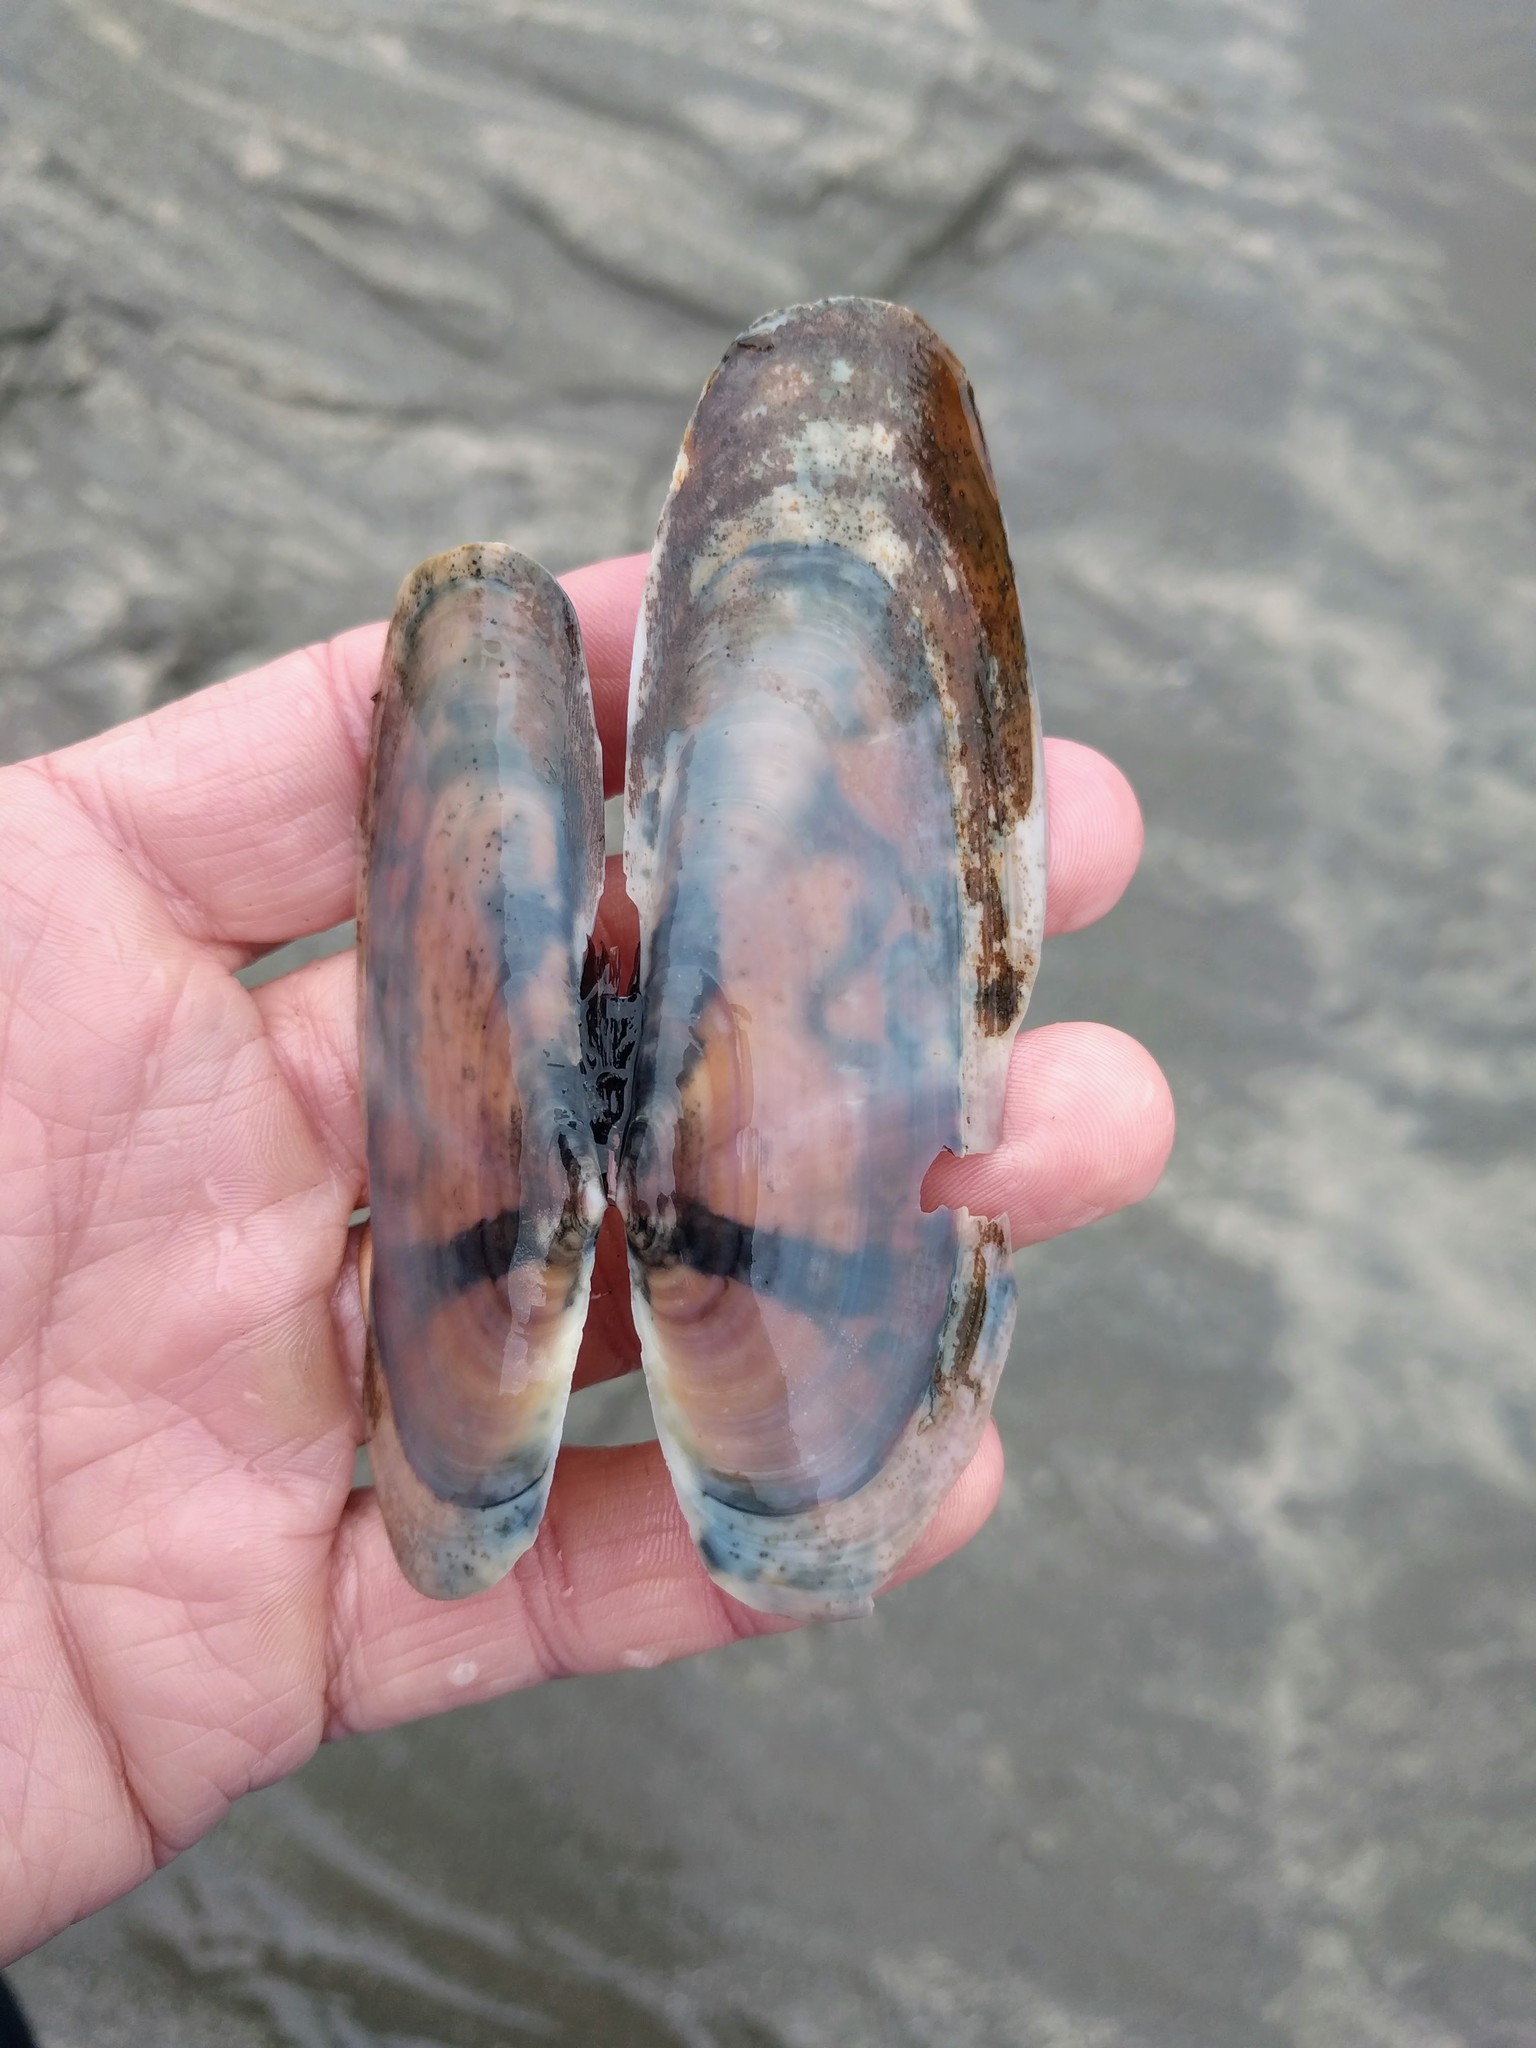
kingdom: Animalia
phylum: Mollusca
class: Bivalvia
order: Adapedonta
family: Pharidae
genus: Siliqua
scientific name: Siliqua patula
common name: Pacific razor clam
